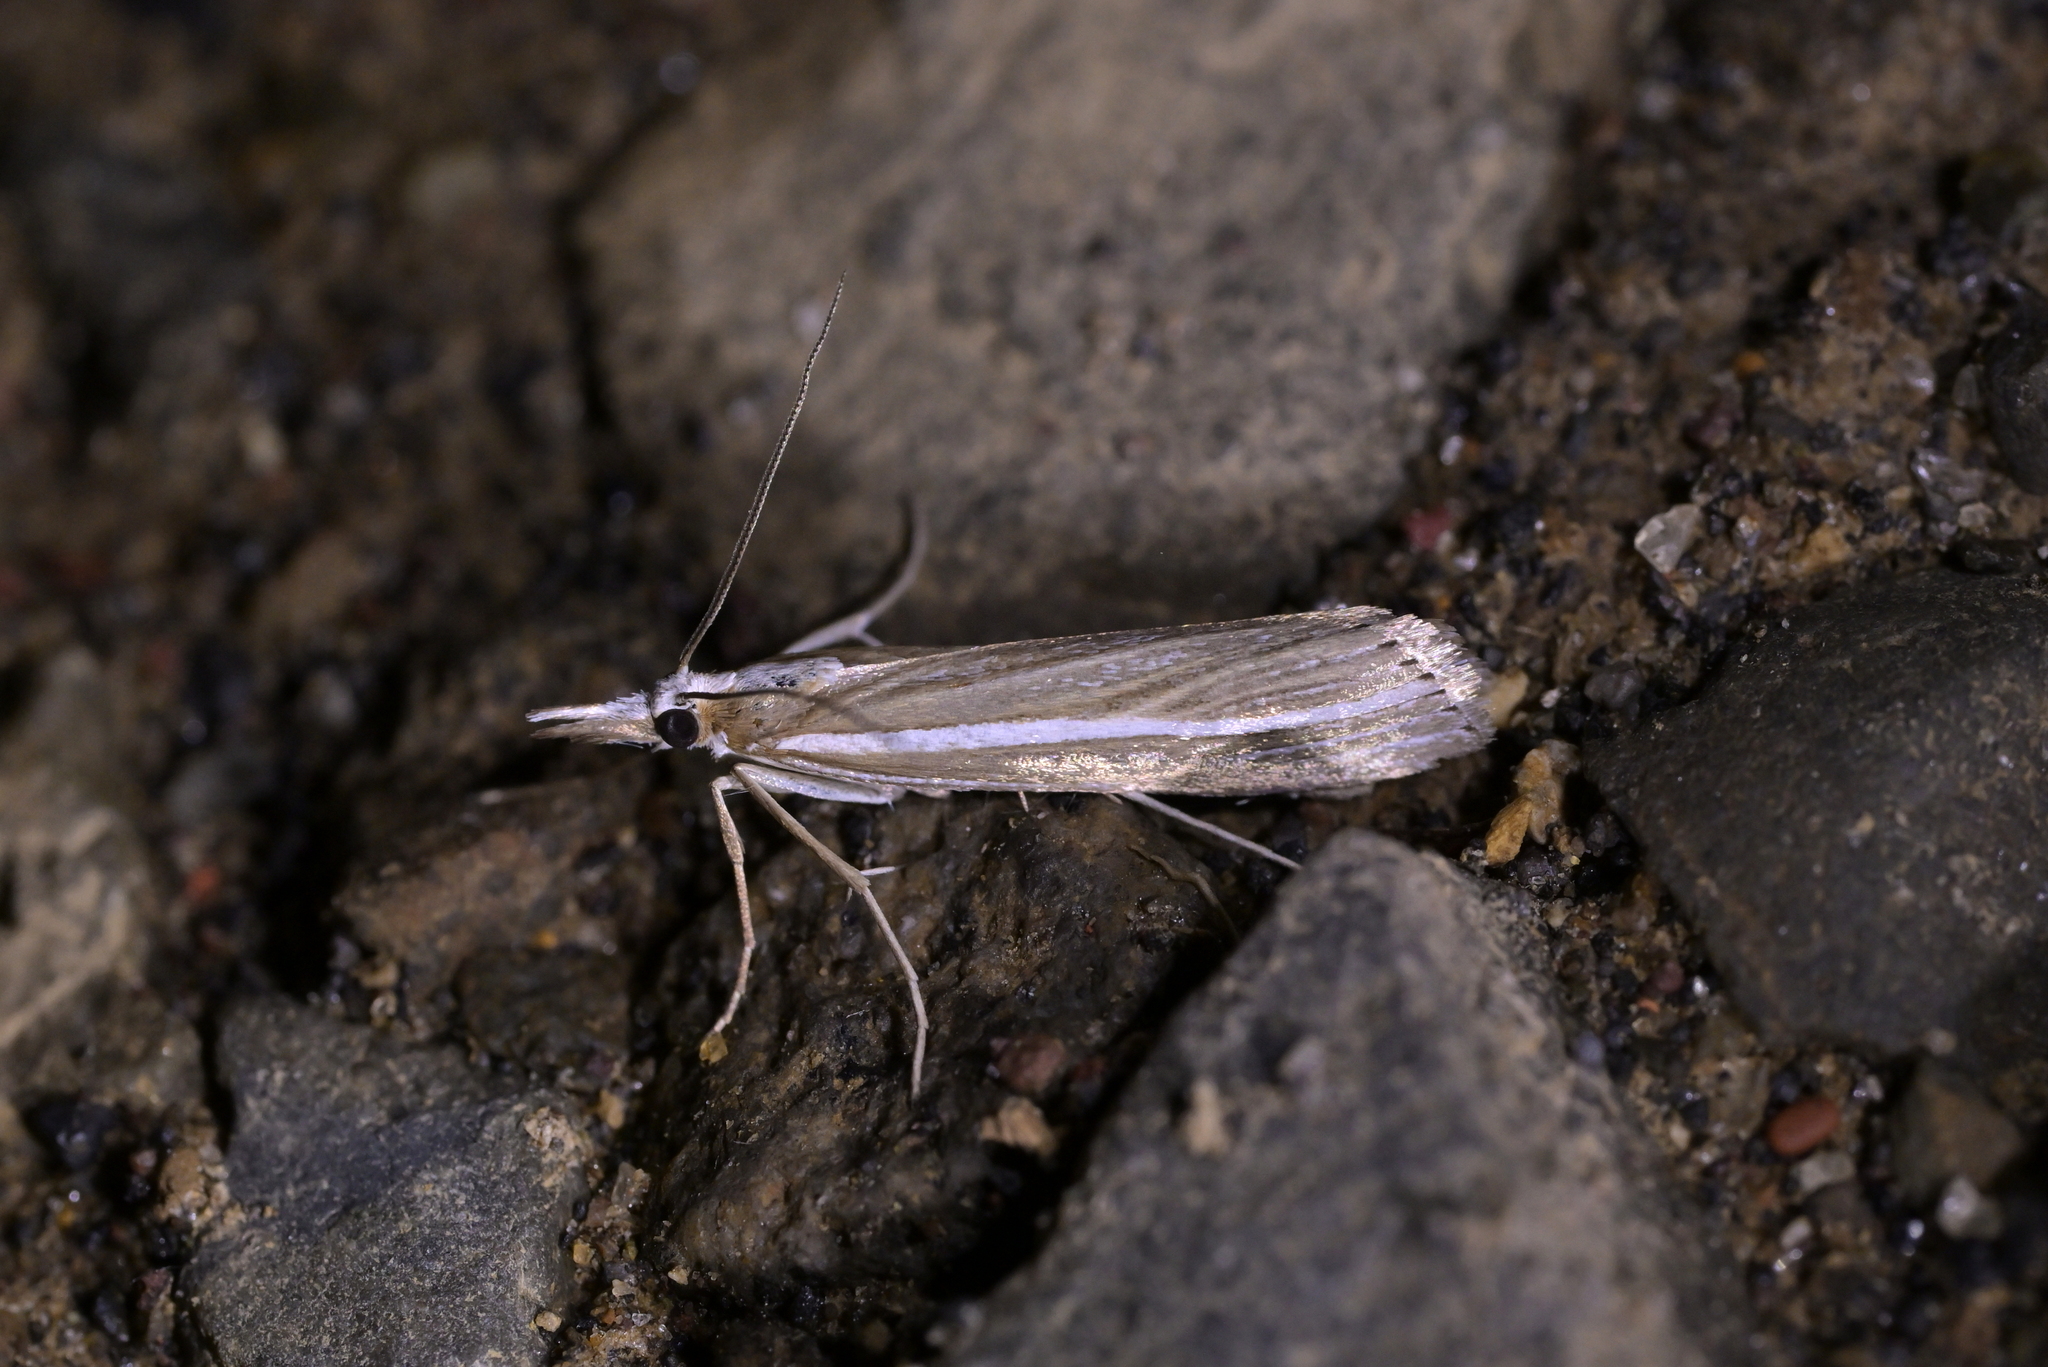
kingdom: Animalia
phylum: Arthropoda
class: Insecta
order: Lepidoptera
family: Crambidae
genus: Orocrambus
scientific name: Orocrambus enchophorus
